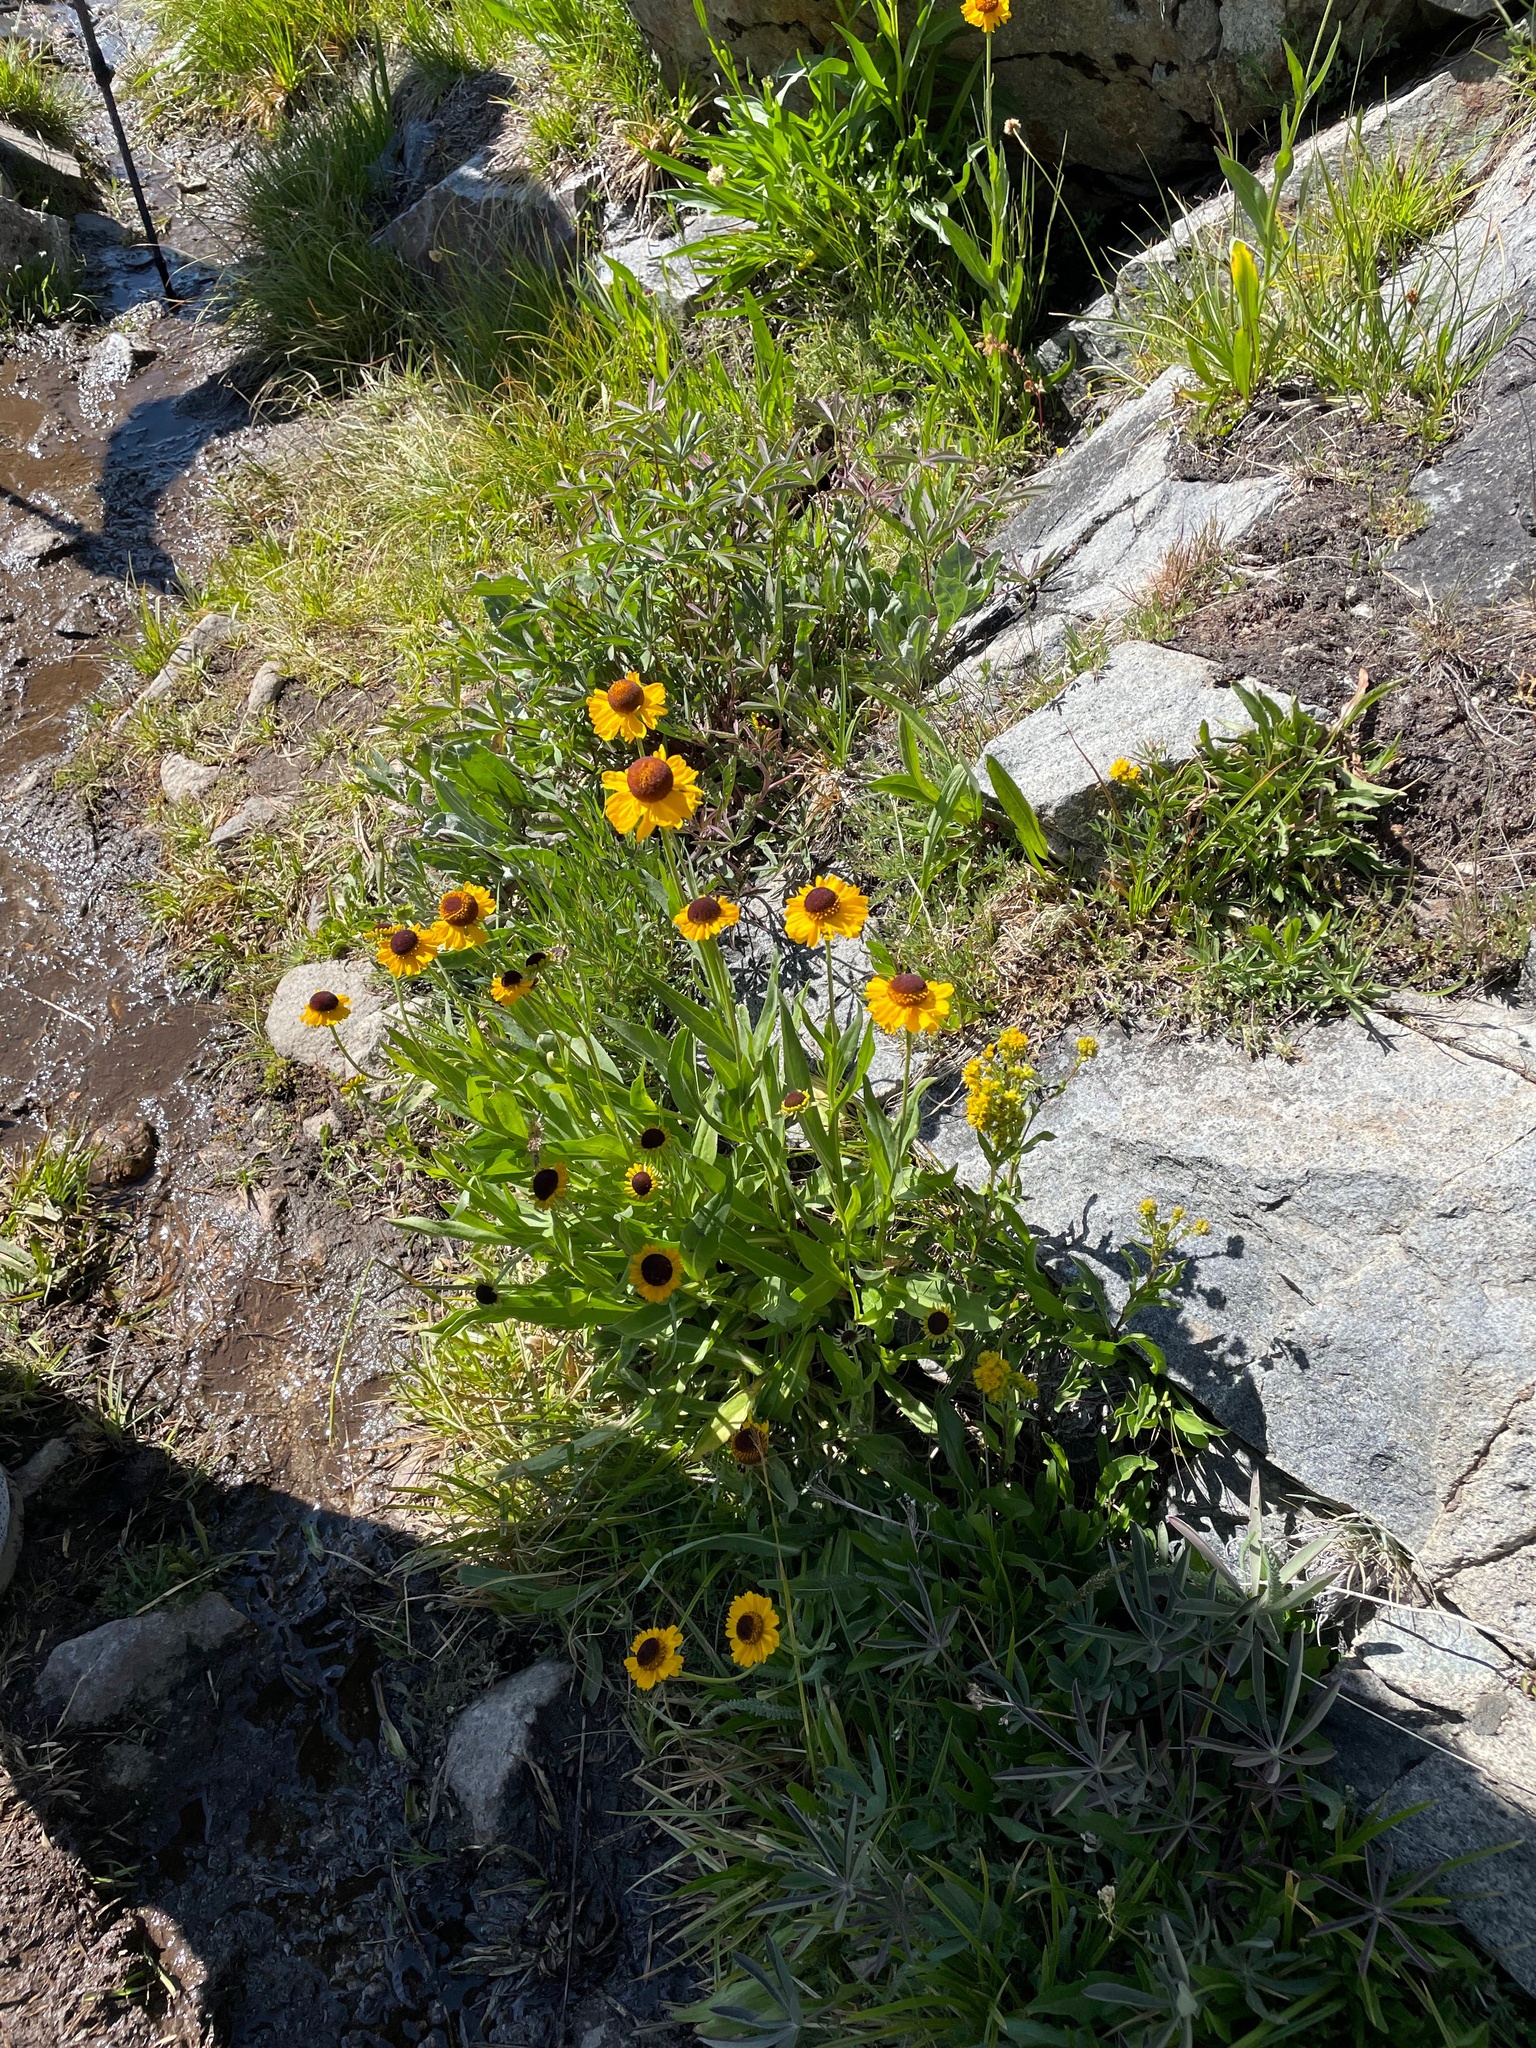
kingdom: Plantae
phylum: Tracheophyta
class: Magnoliopsida
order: Asterales
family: Asteraceae
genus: Helenium
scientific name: Helenium bigelovii
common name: Bigelow's sneezeweed
